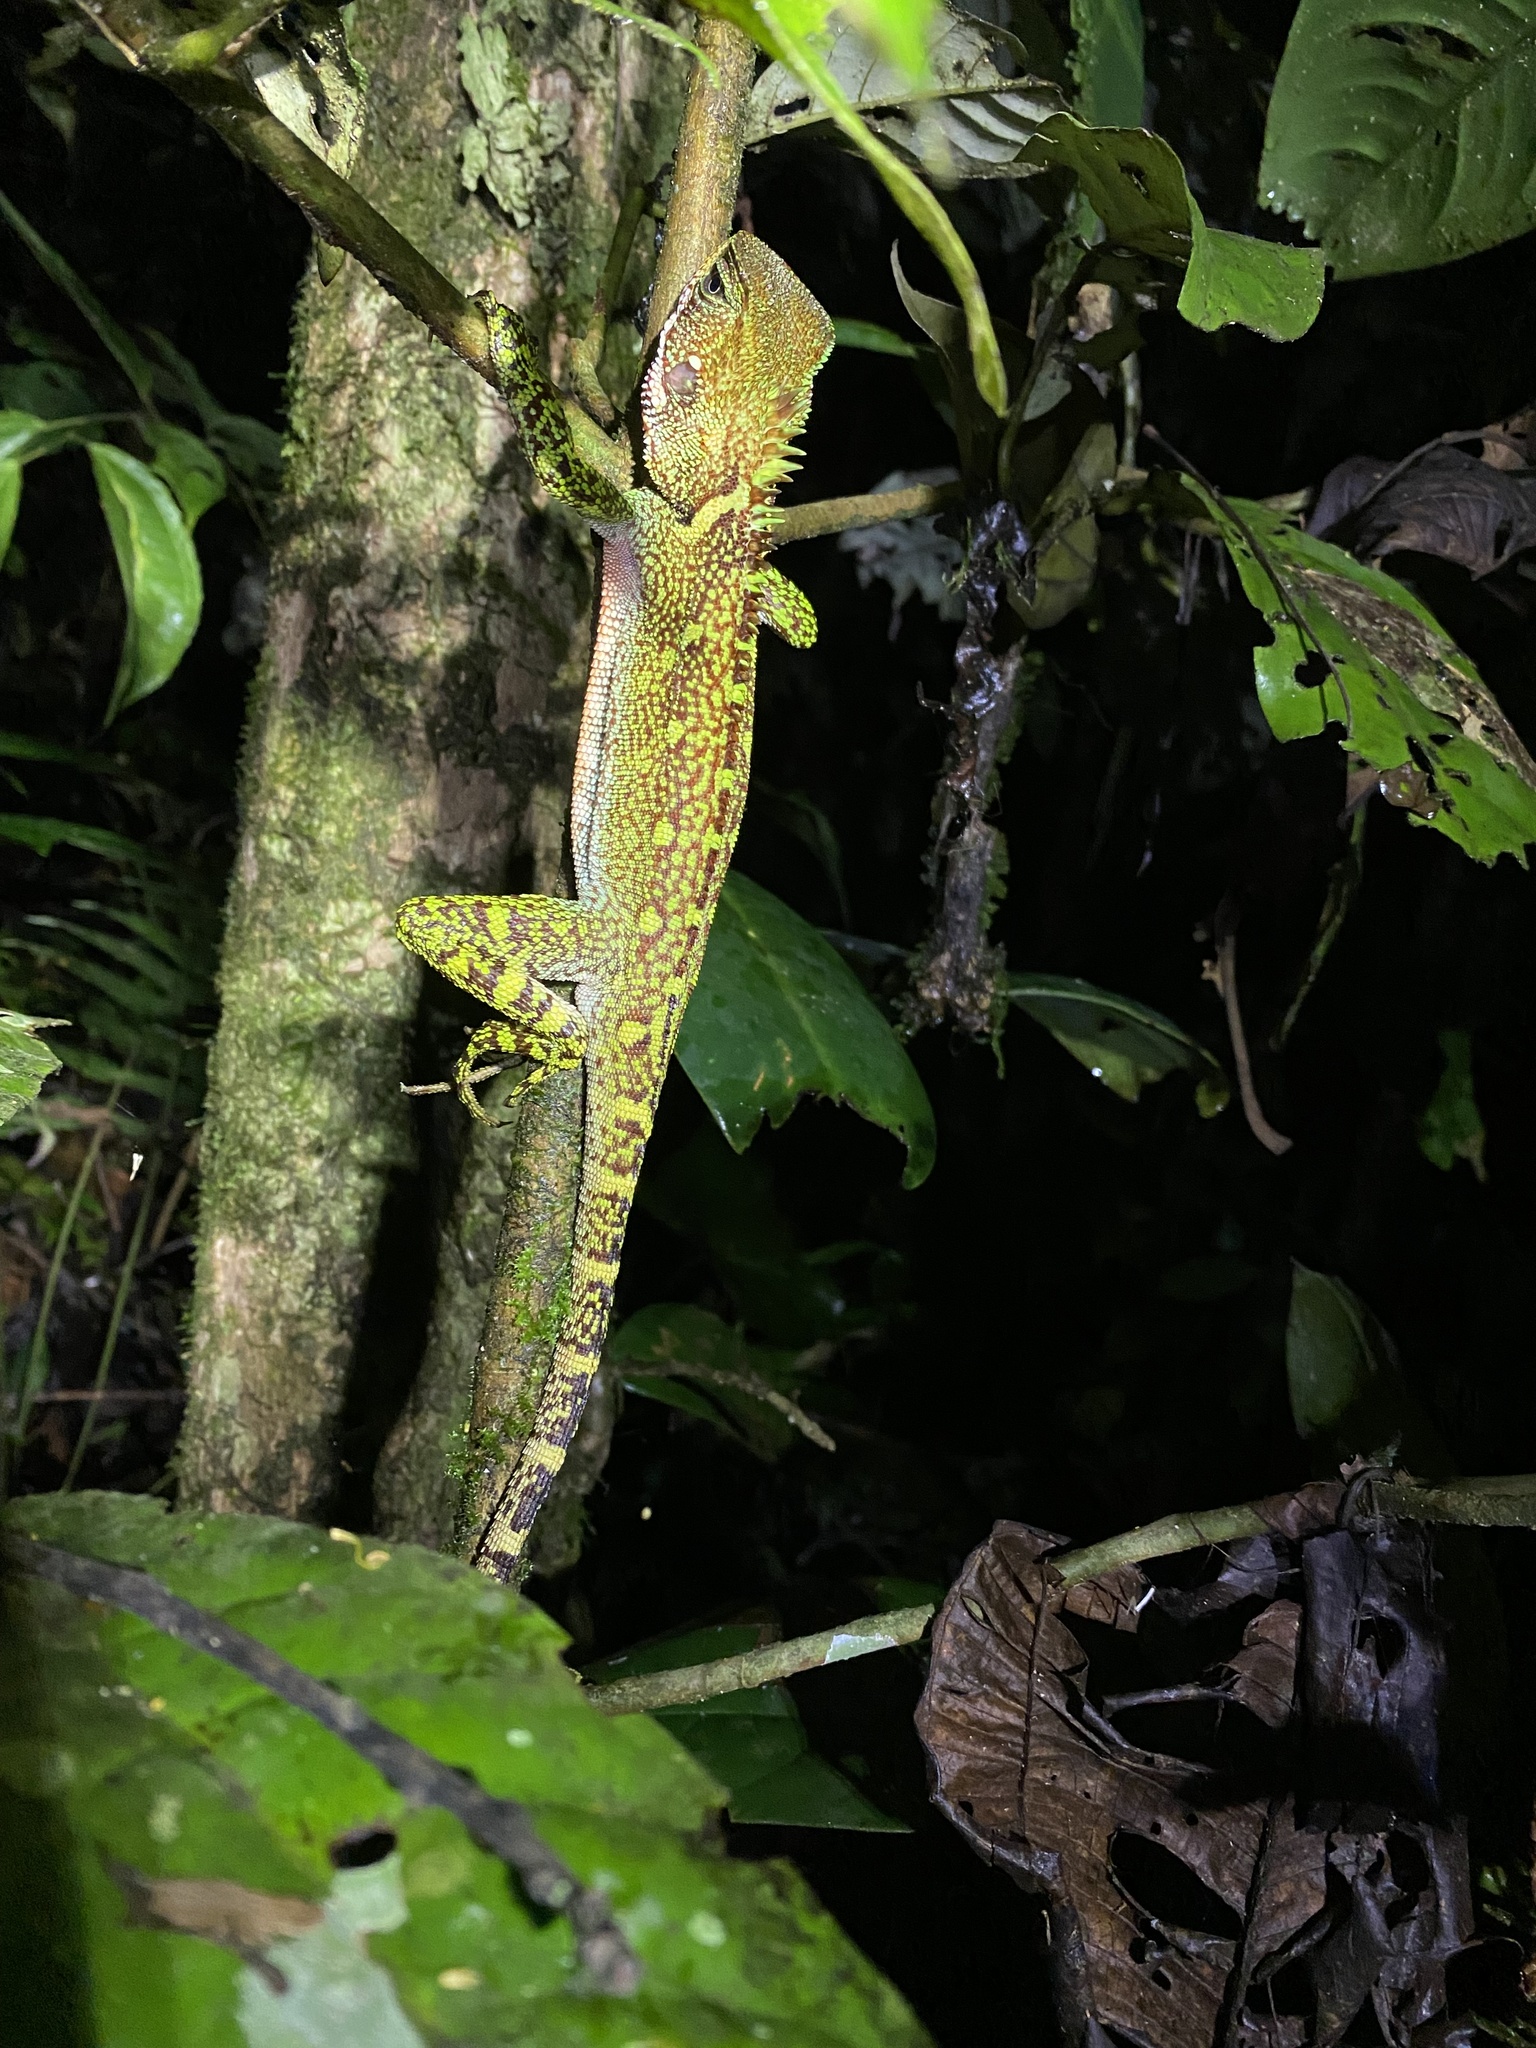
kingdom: Animalia
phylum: Chordata
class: Squamata
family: Hoplocercidae
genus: Enyalioides
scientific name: Enyalioides laticeps
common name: Guichenot's dwarf iguana
